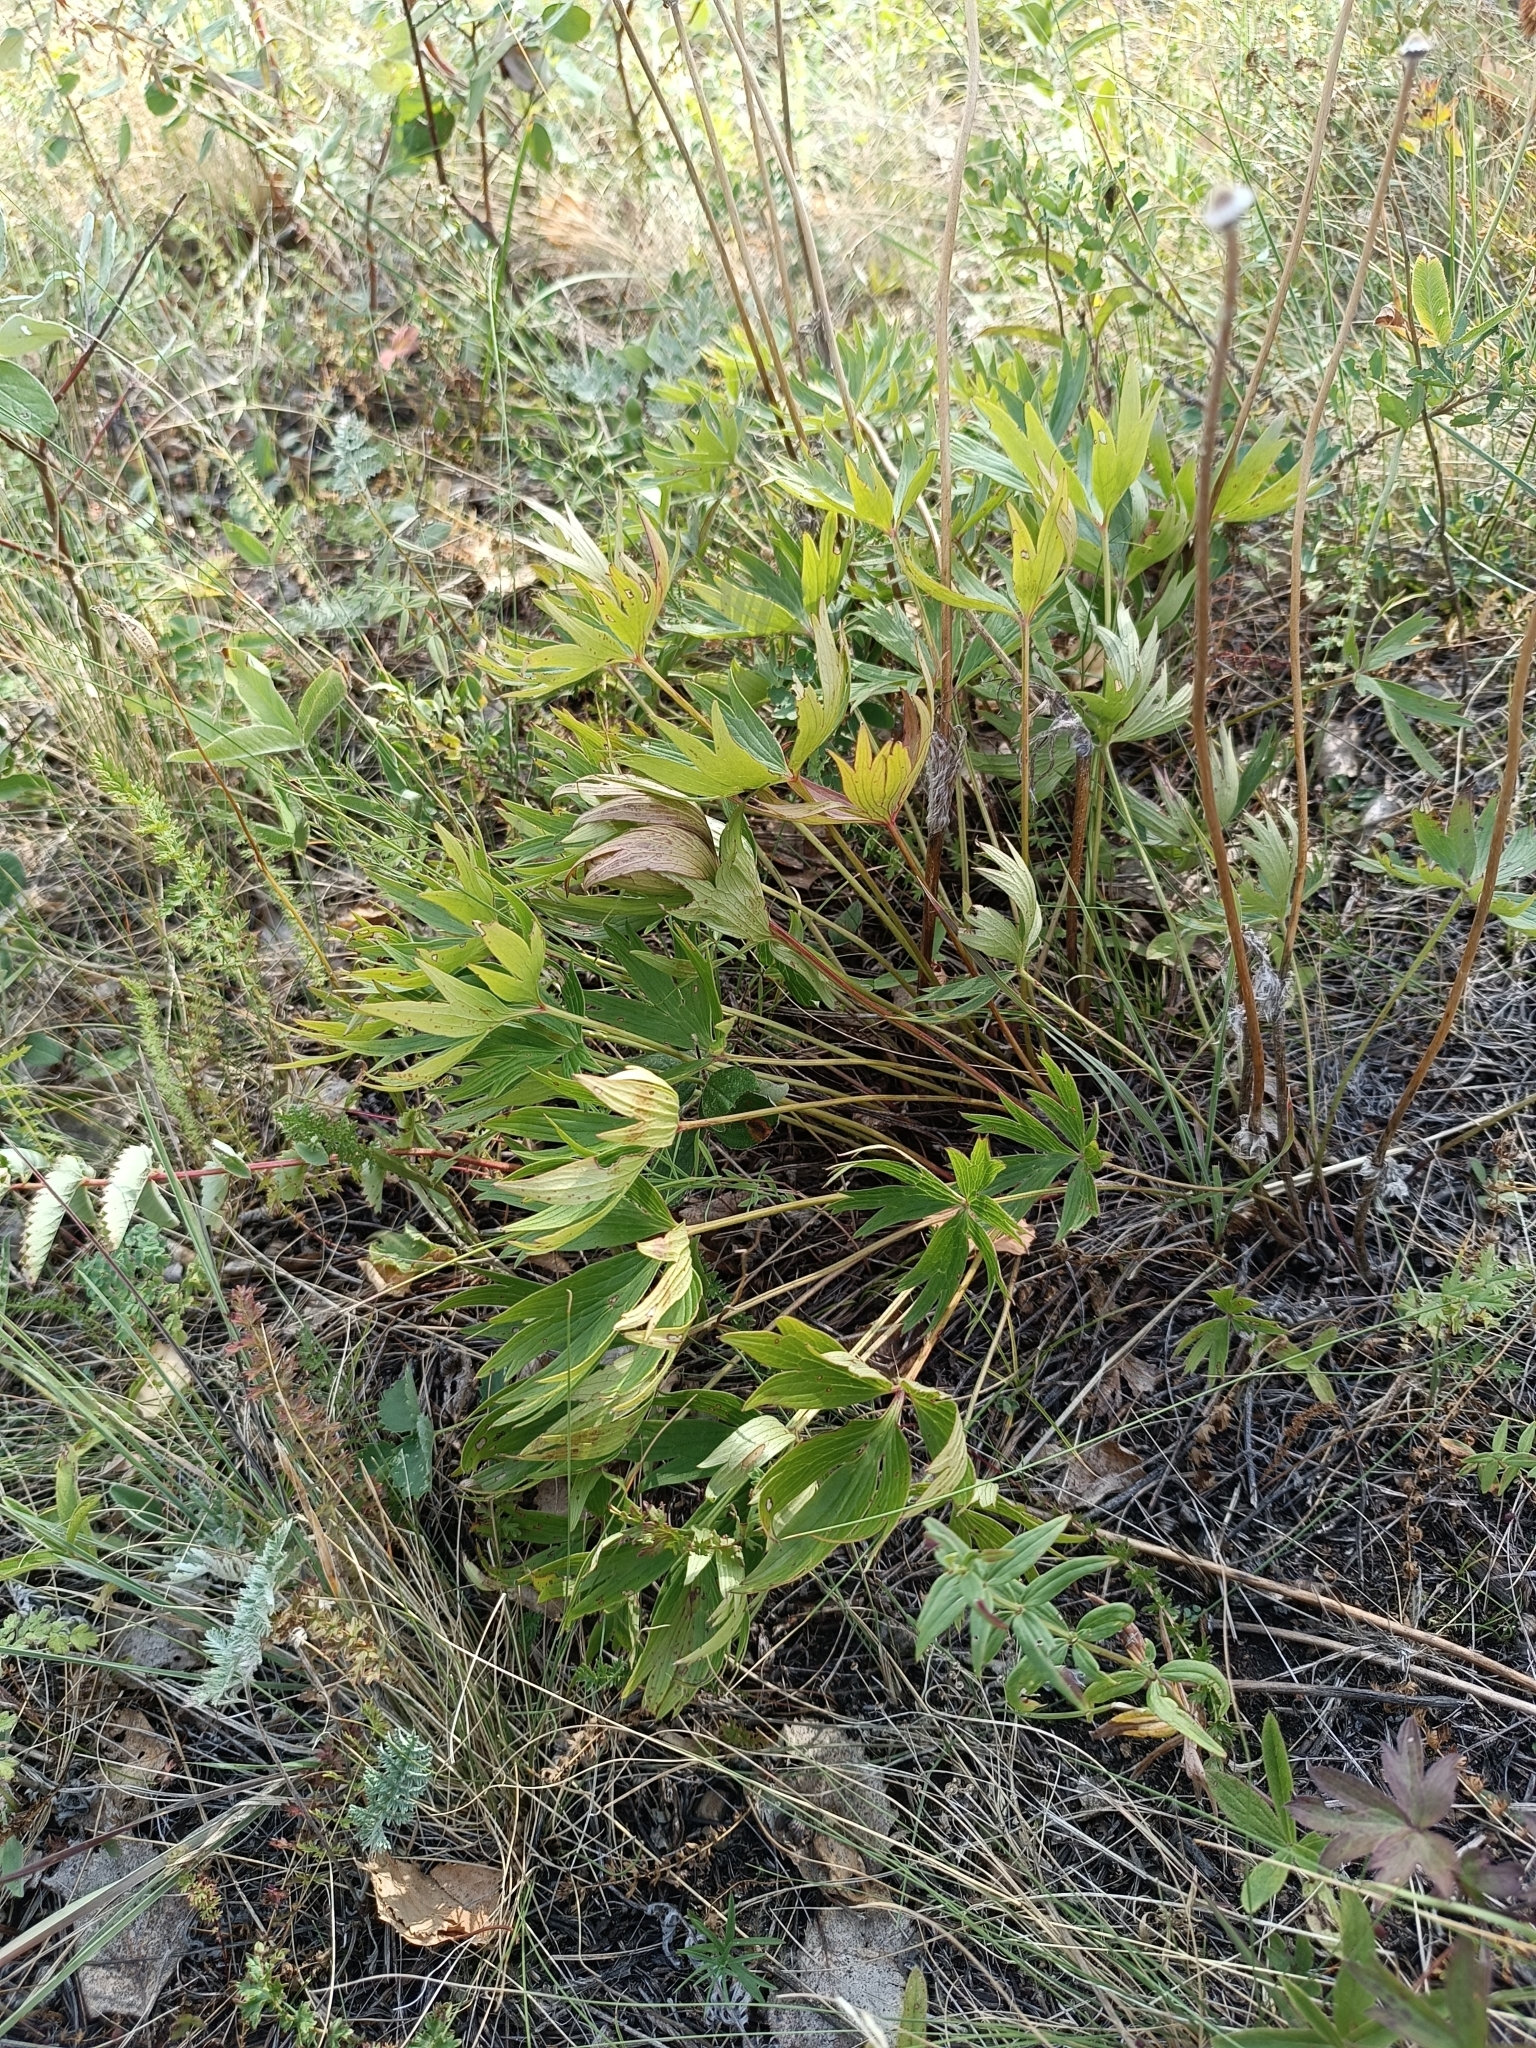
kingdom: Plantae
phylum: Tracheophyta
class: Magnoliopsida
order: Ranunculales
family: Ranunculaceae
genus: Pulsatilla
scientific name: Pulsatilla patens
